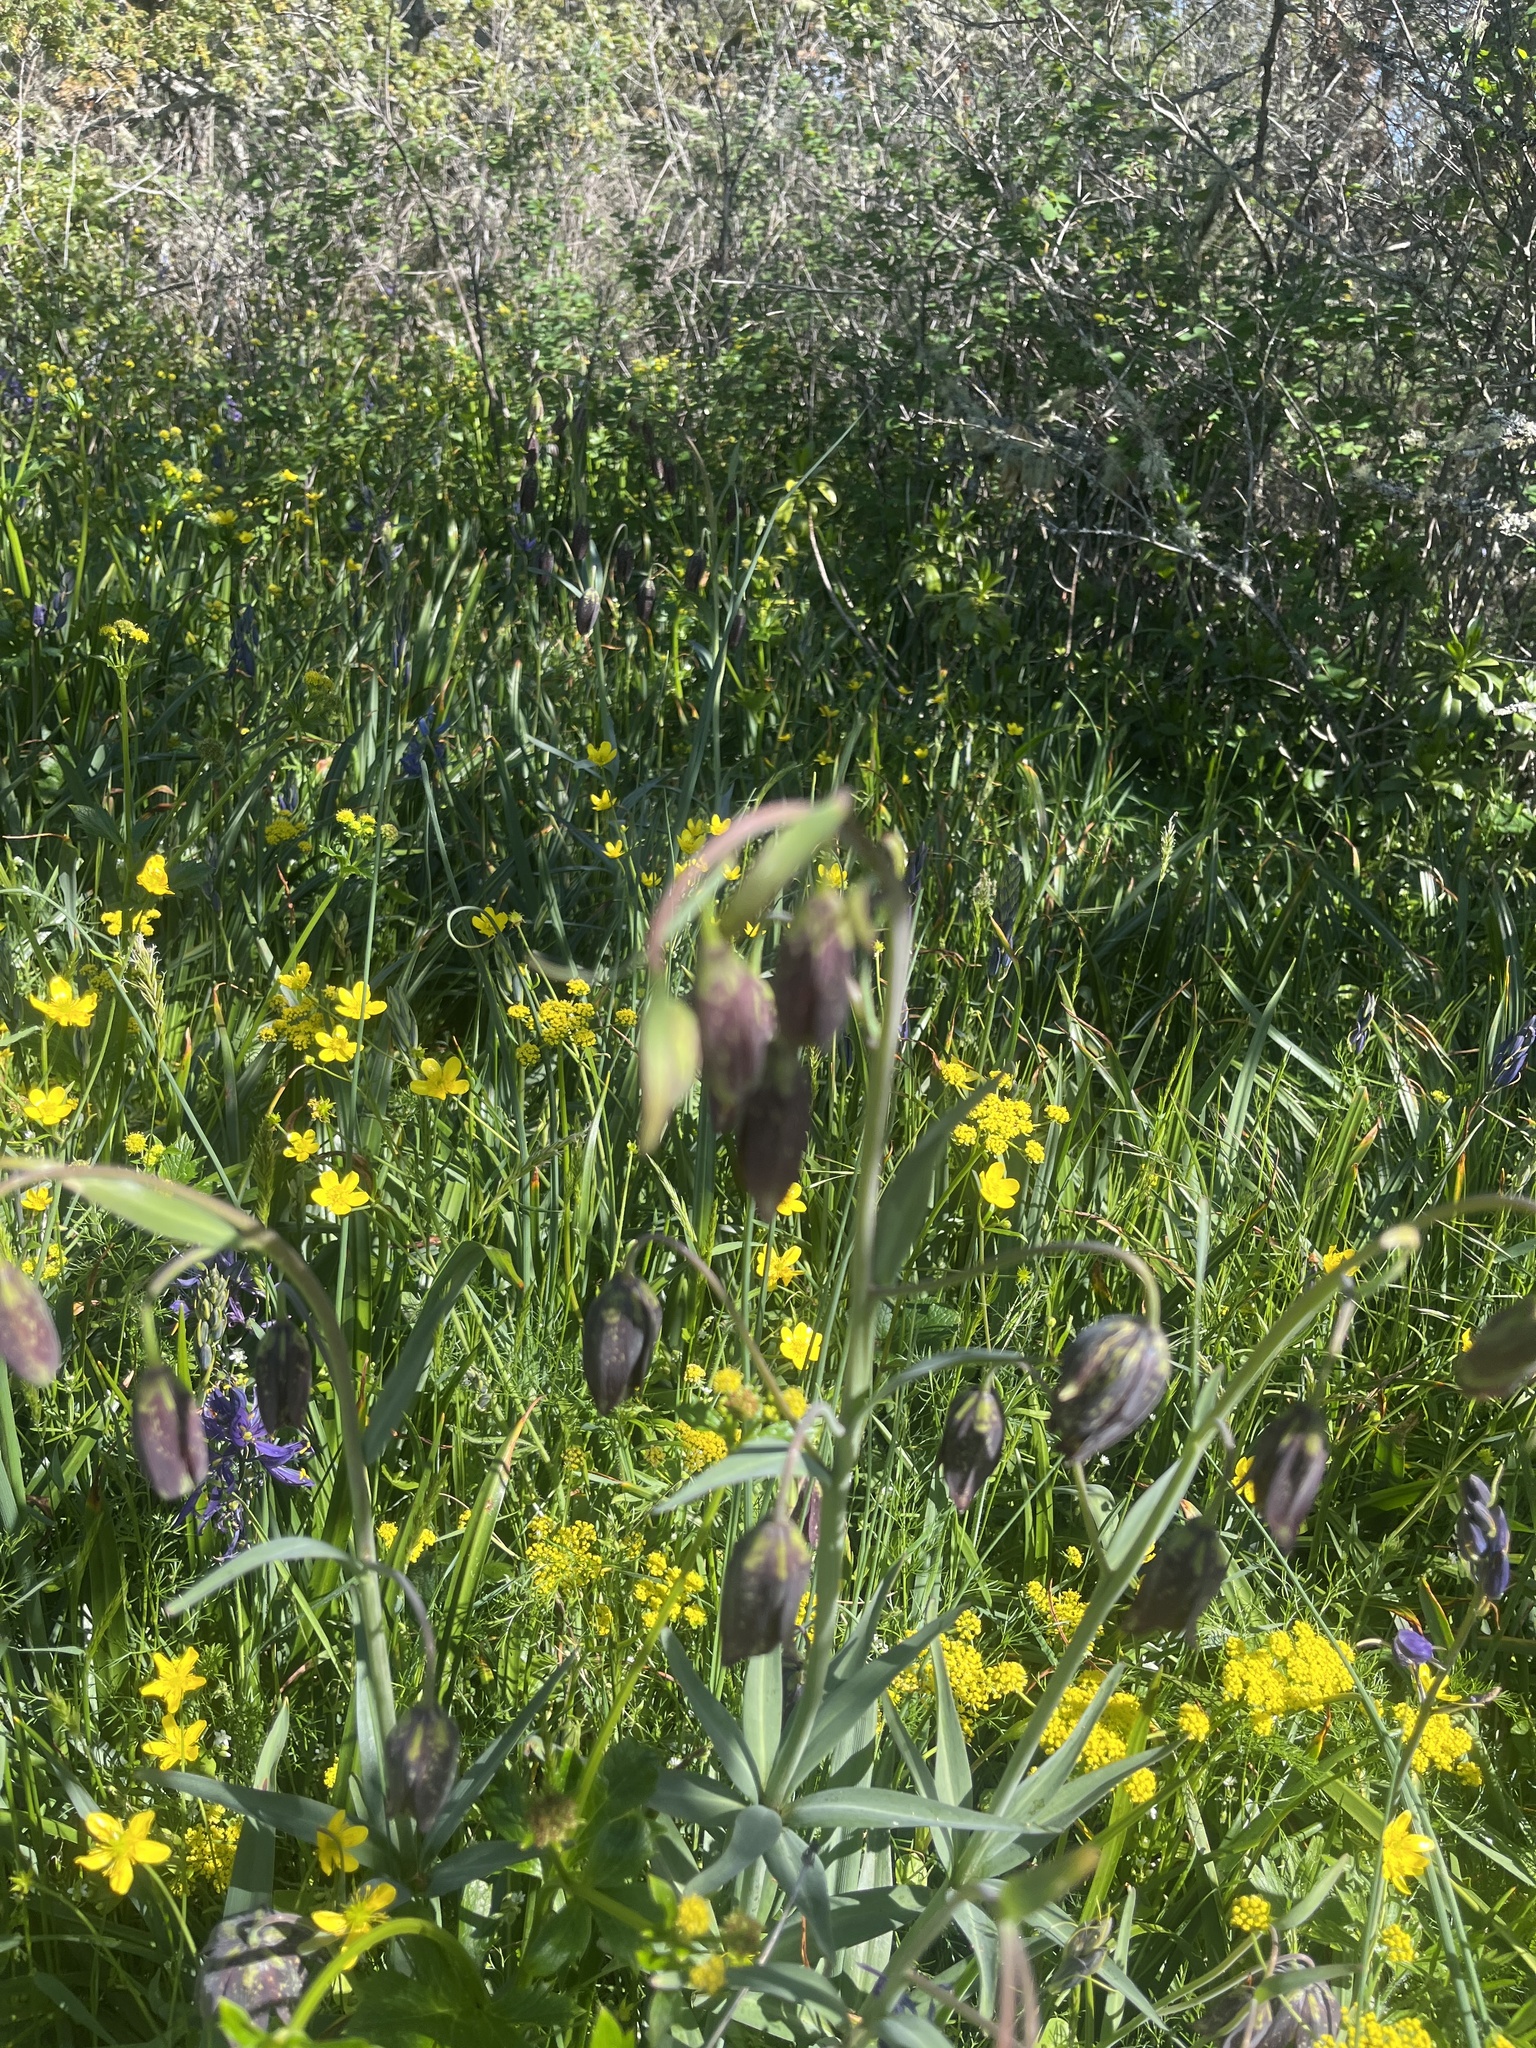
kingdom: Plantae
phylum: Tracheophyta
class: Liliopsida
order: Liliales
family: Liliaceae
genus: Fritillaria
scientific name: Fritillaria affinis
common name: Ojai fritillary
